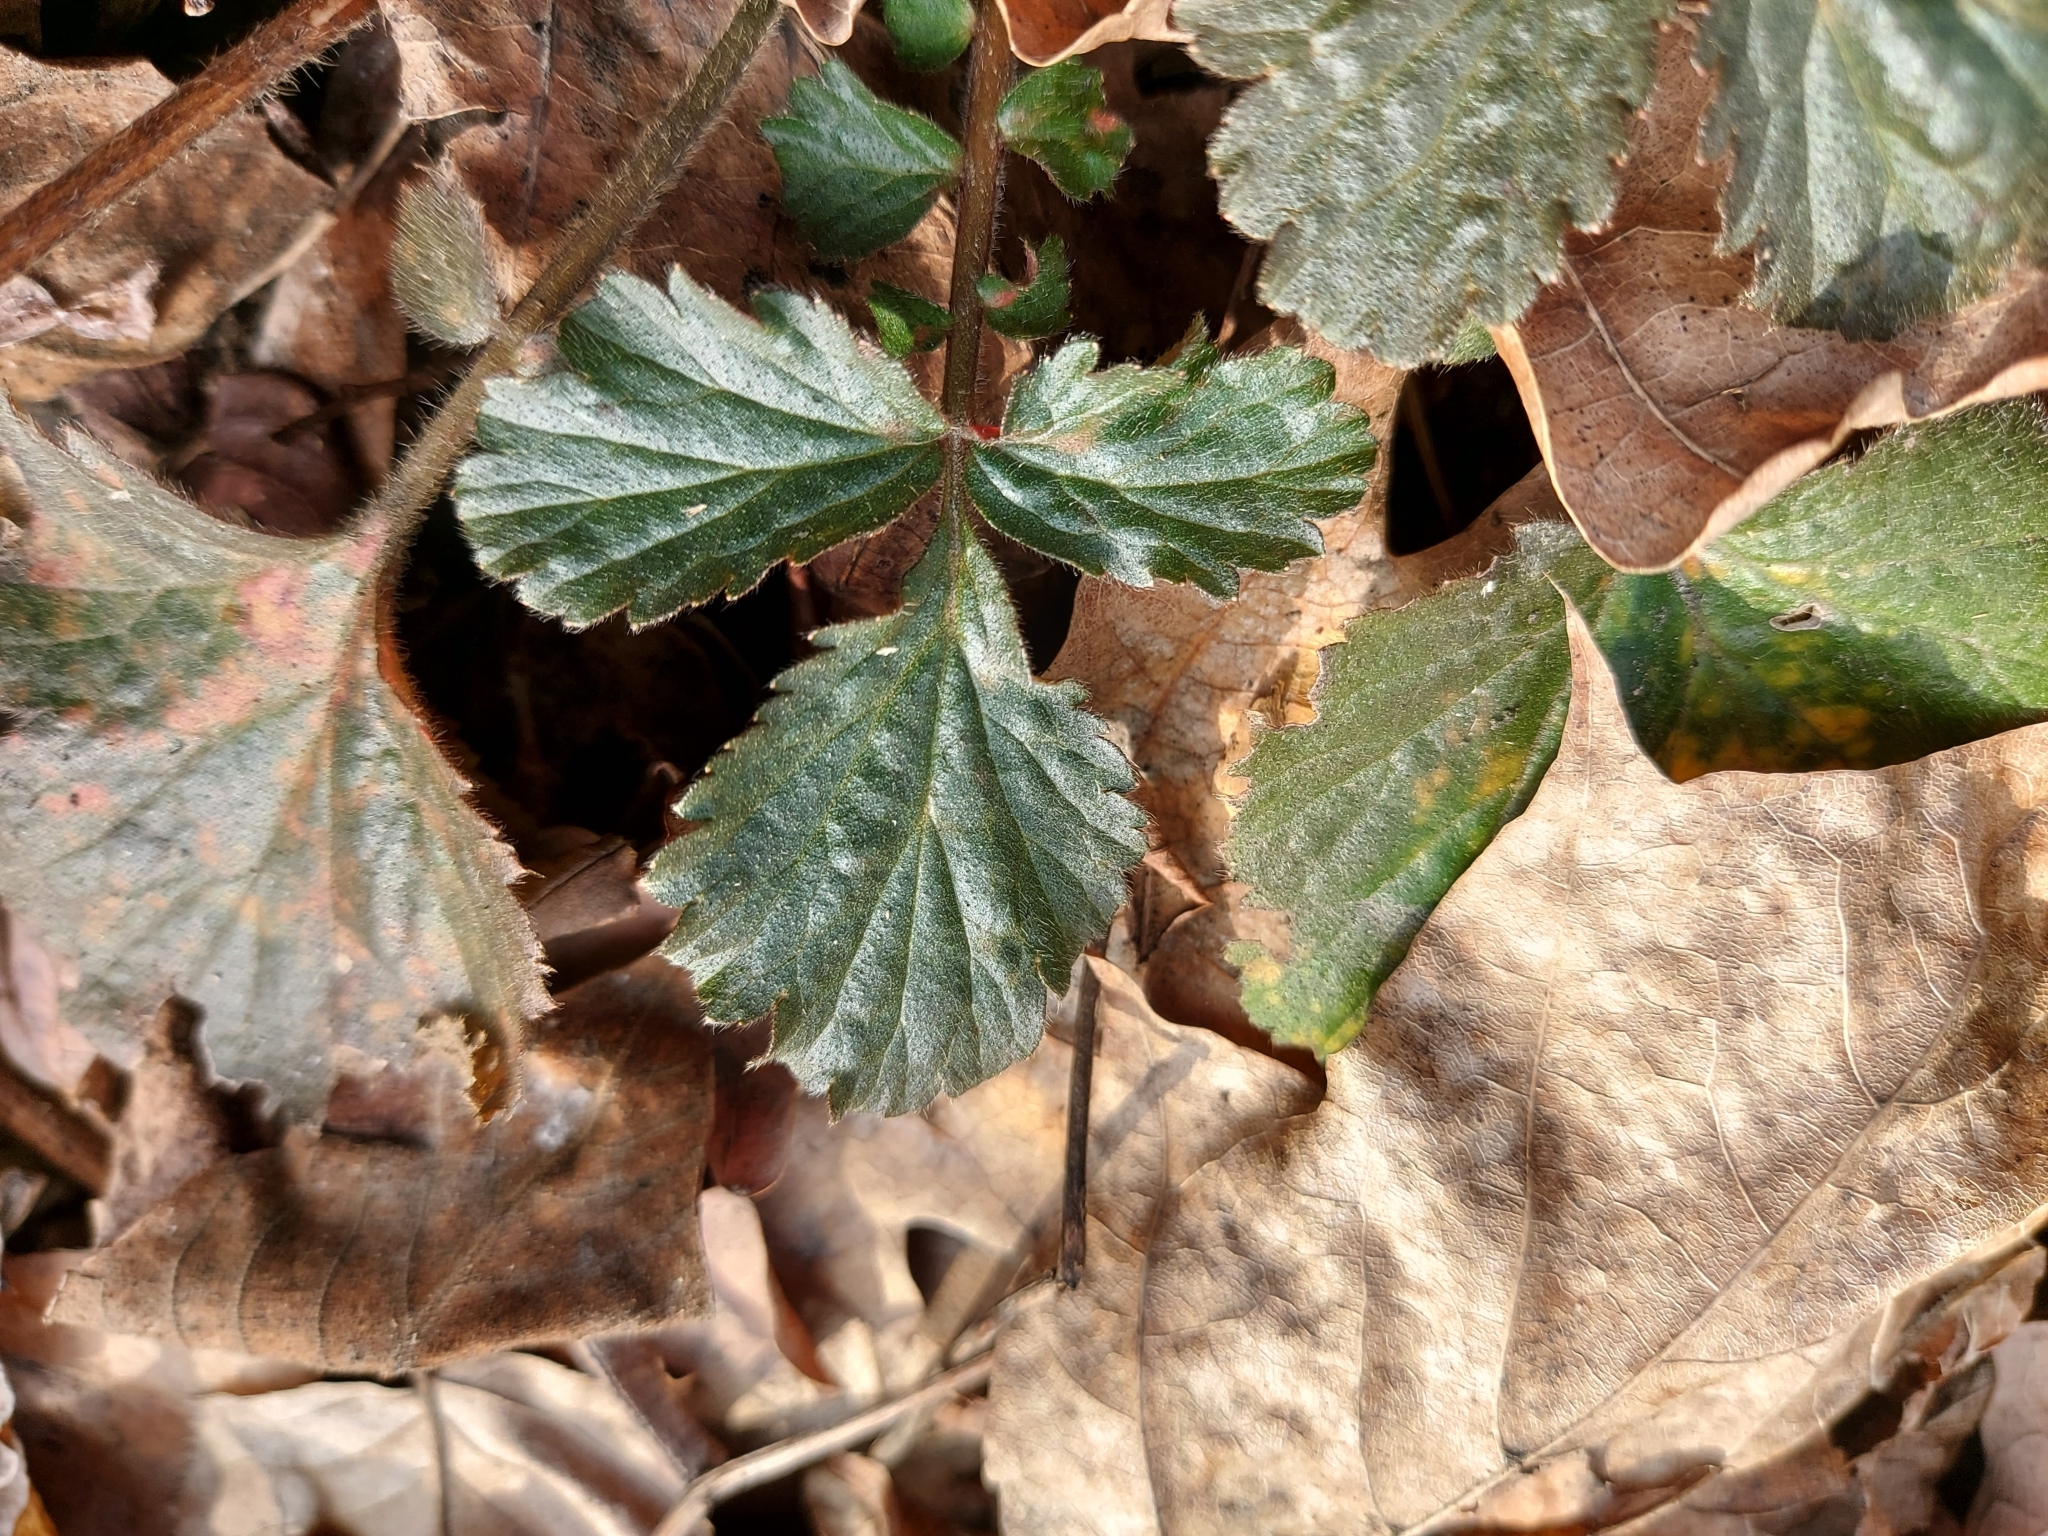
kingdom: Plantae
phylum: Tracheophyta
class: Magnoliopsida
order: Rosales
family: Rosaceae
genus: Geum
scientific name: Geum urbanum
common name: Wood avens
